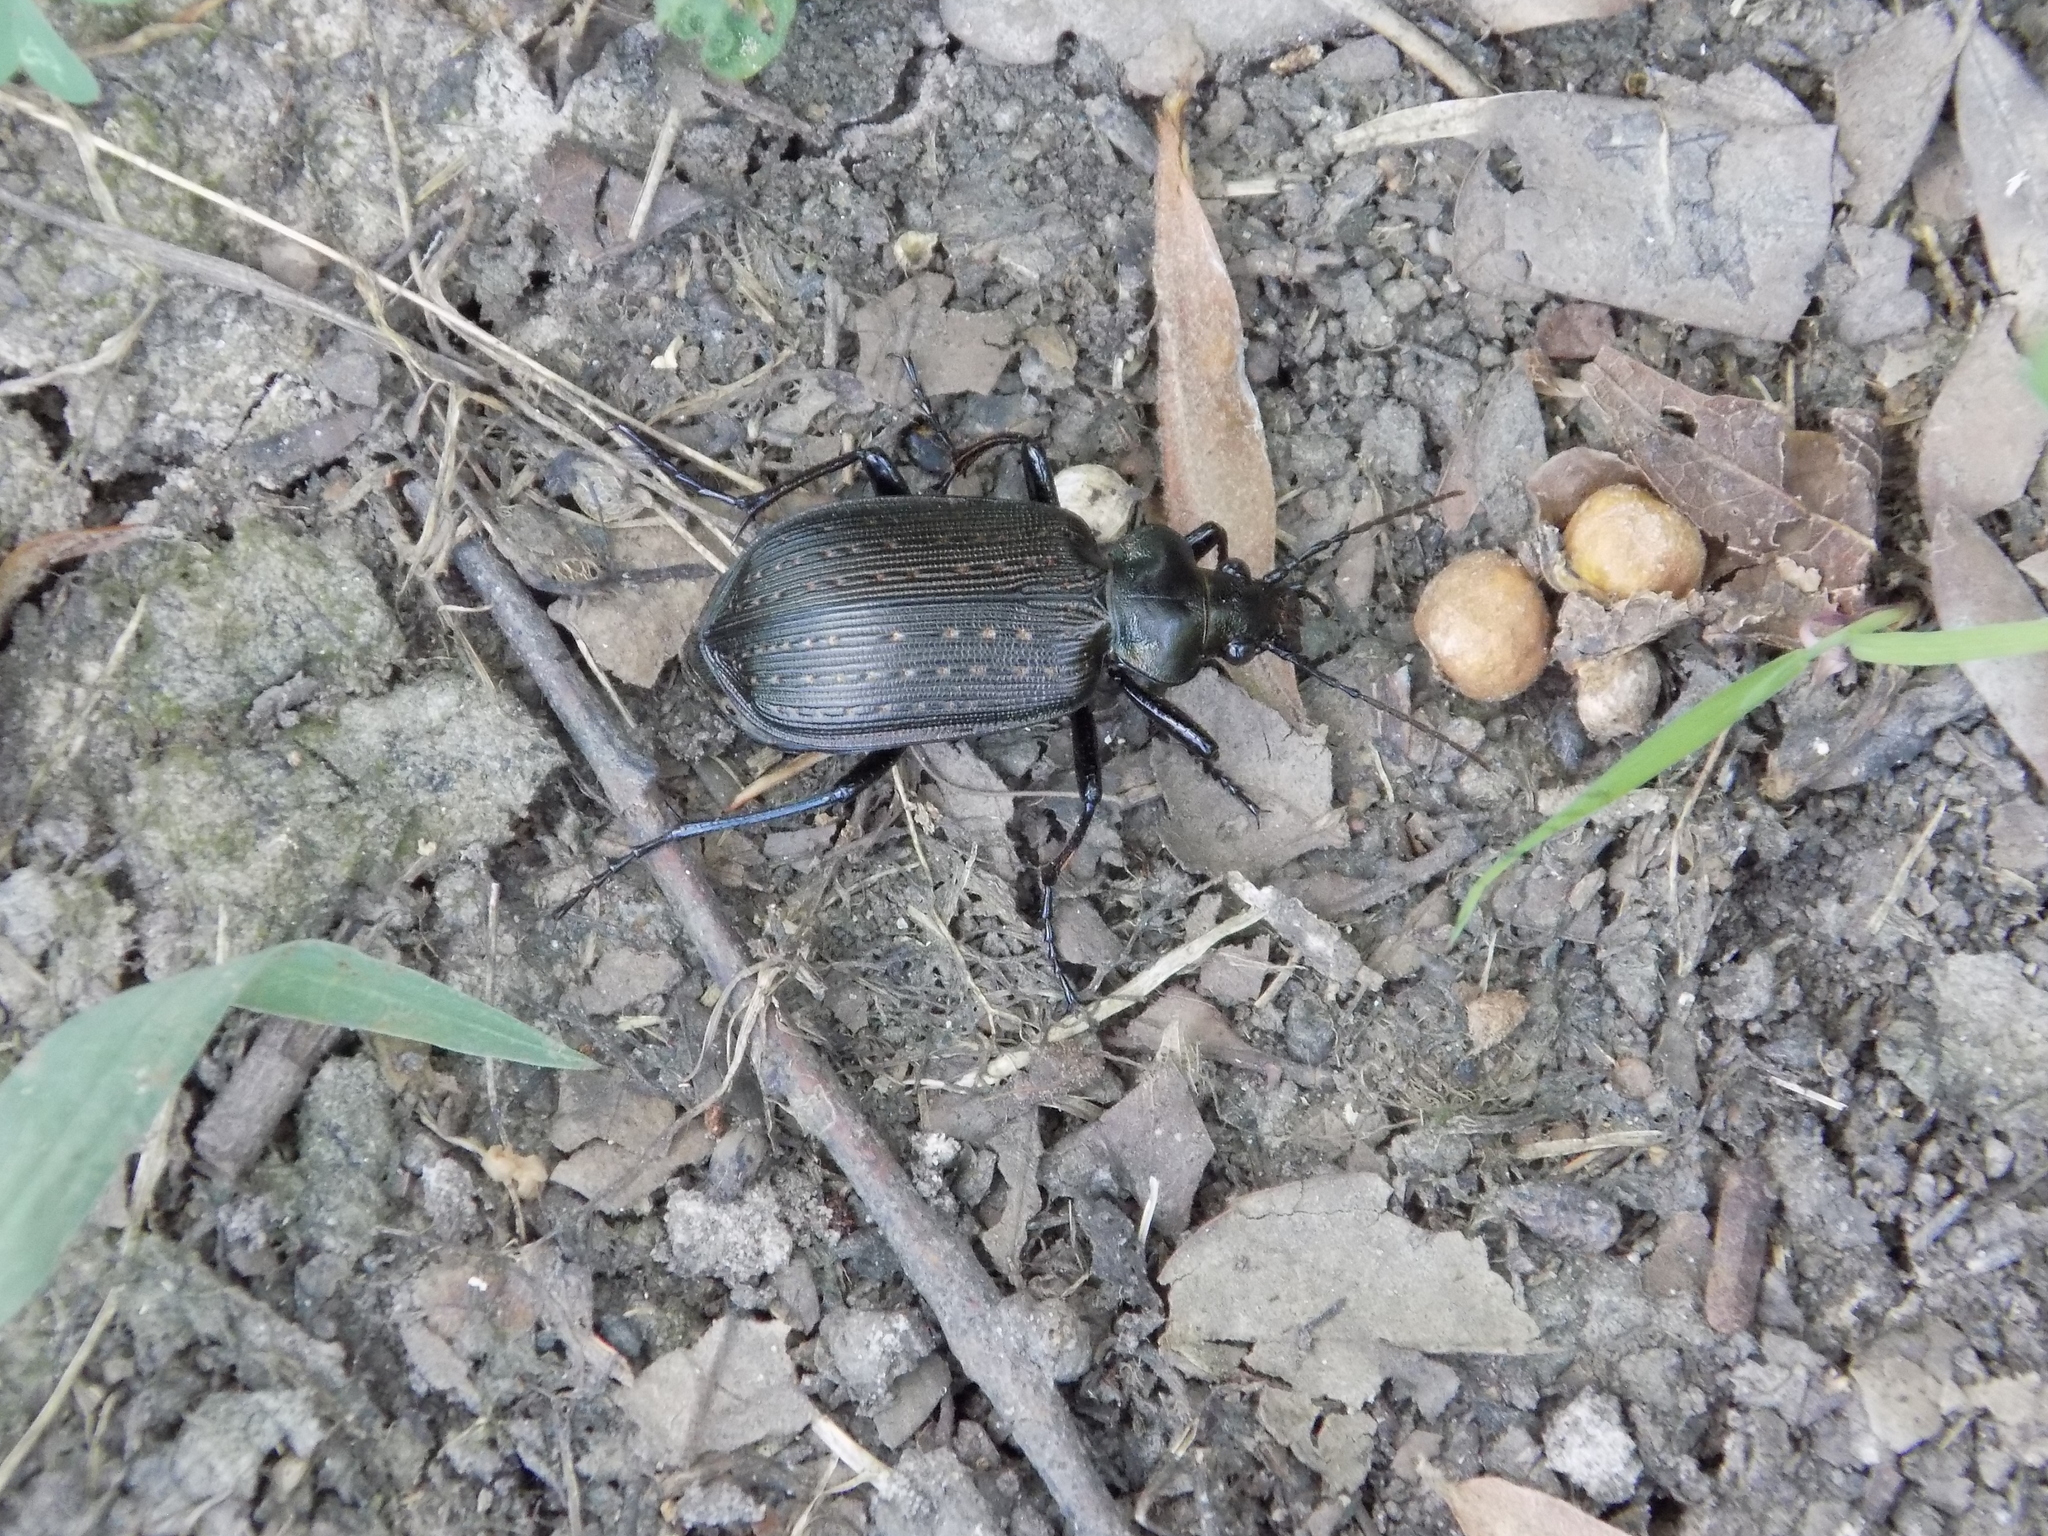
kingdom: Animalia
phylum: Arthropoda
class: Insecta
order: Coleoptera
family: Carabidae
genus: Calosoma
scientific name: Calosoma sayi
